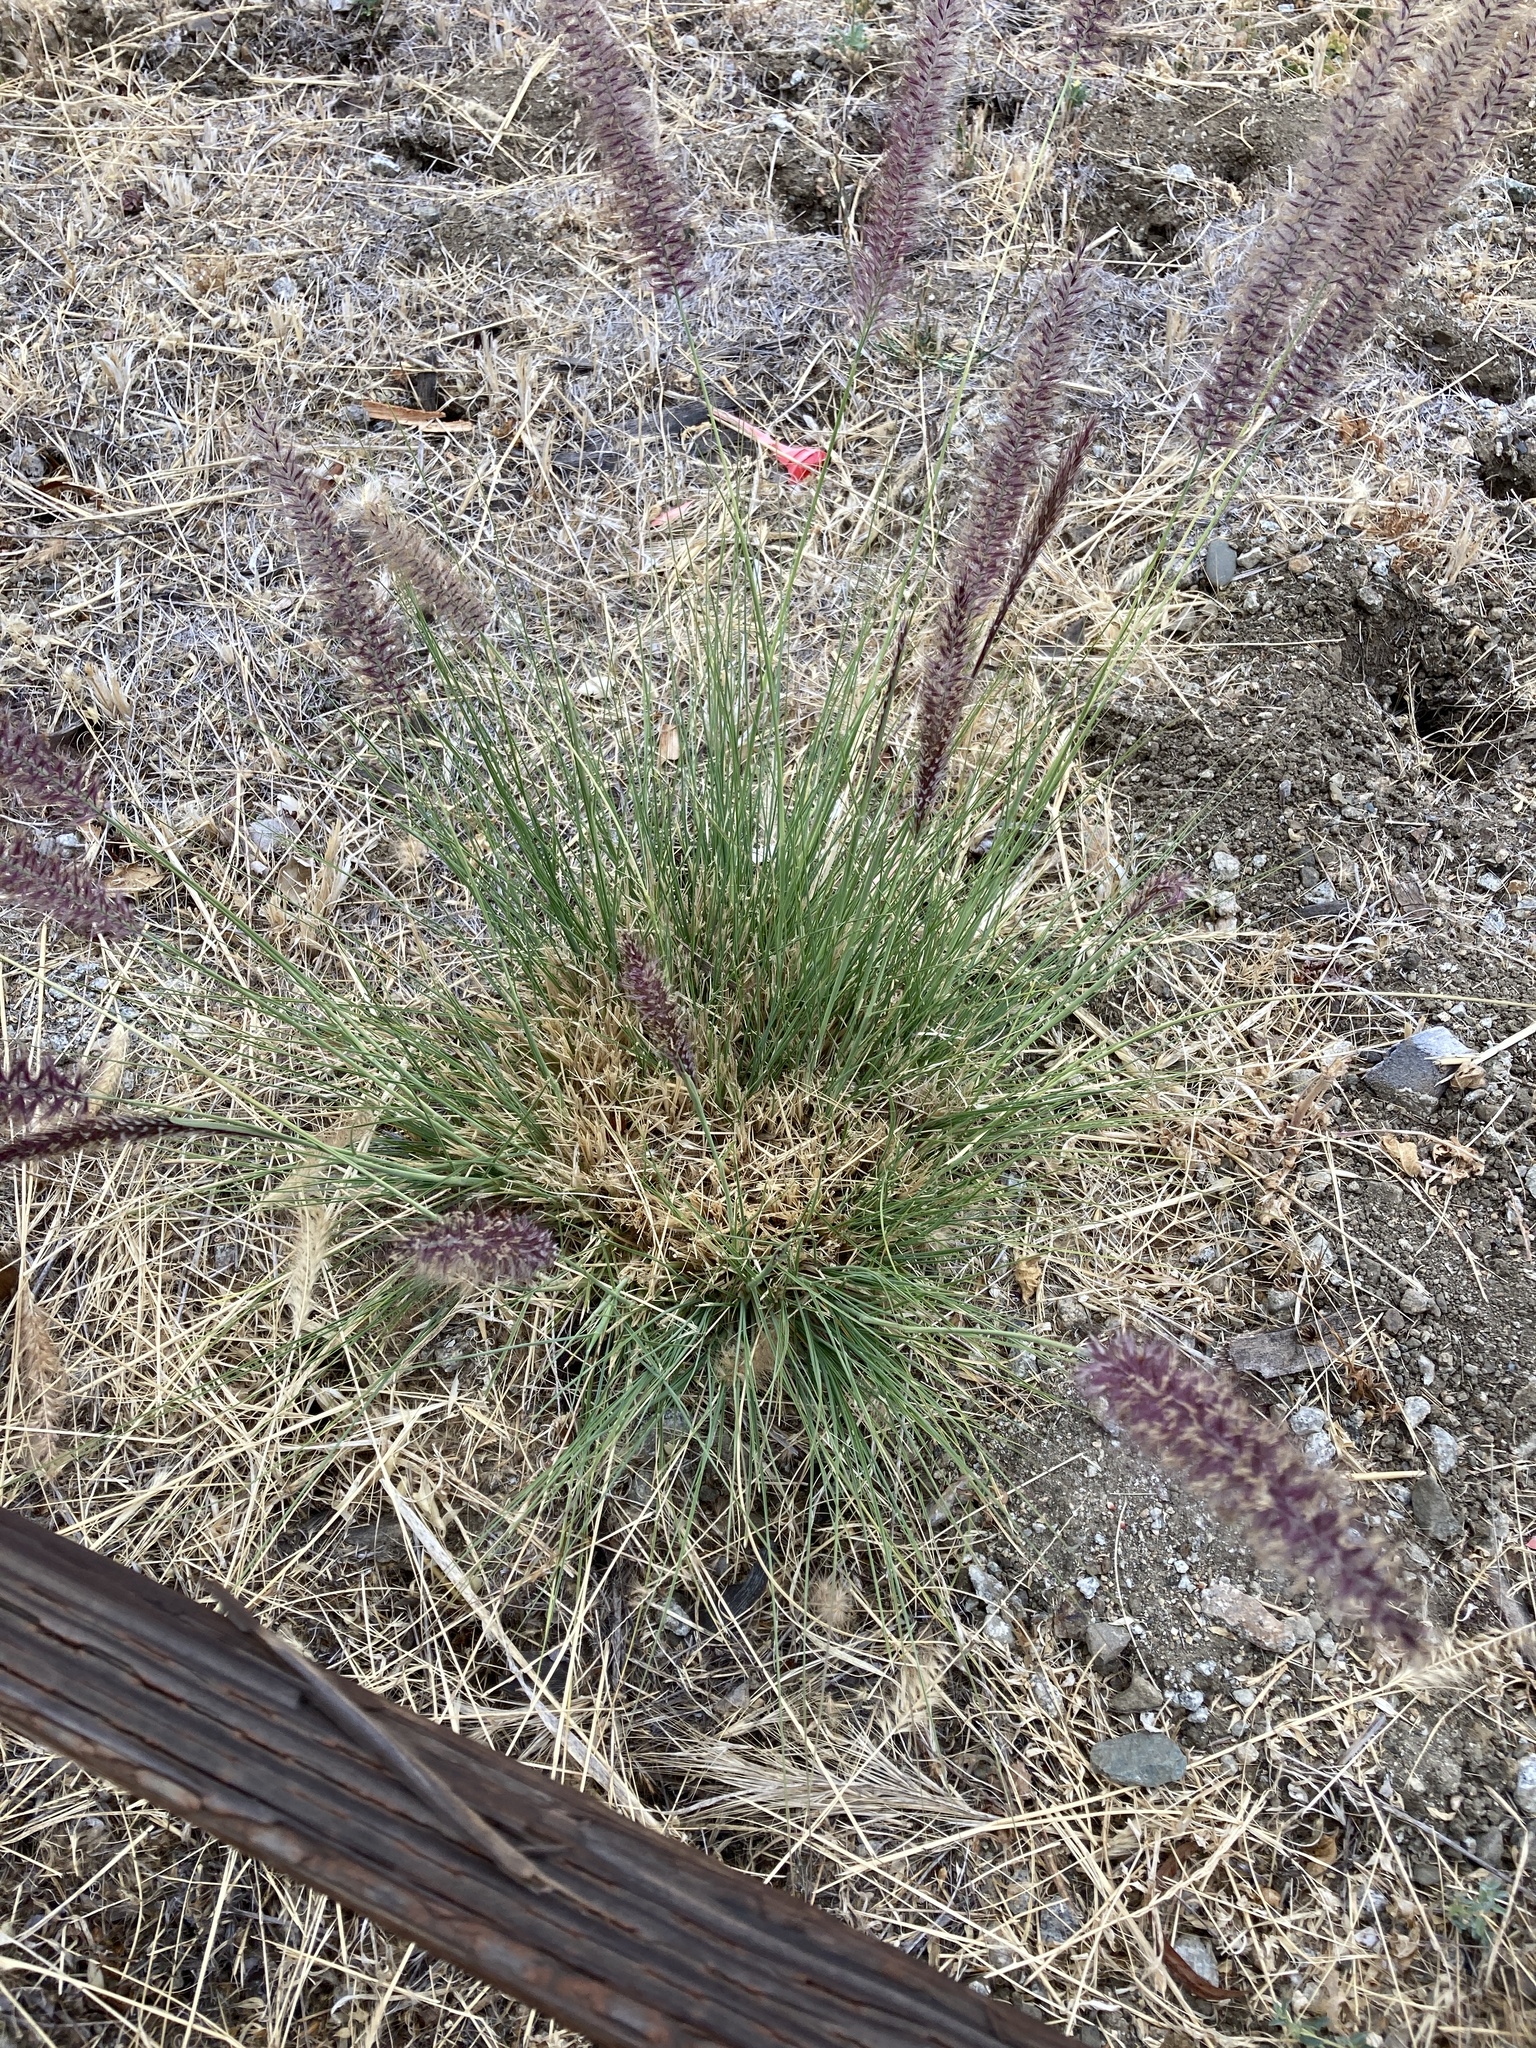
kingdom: Plantae
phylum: Tracheophyta
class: Liliopsida
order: Poales
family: Poaceae
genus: Cenchrus
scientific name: Cenchrus setaceus
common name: Crimson fountaingrass
